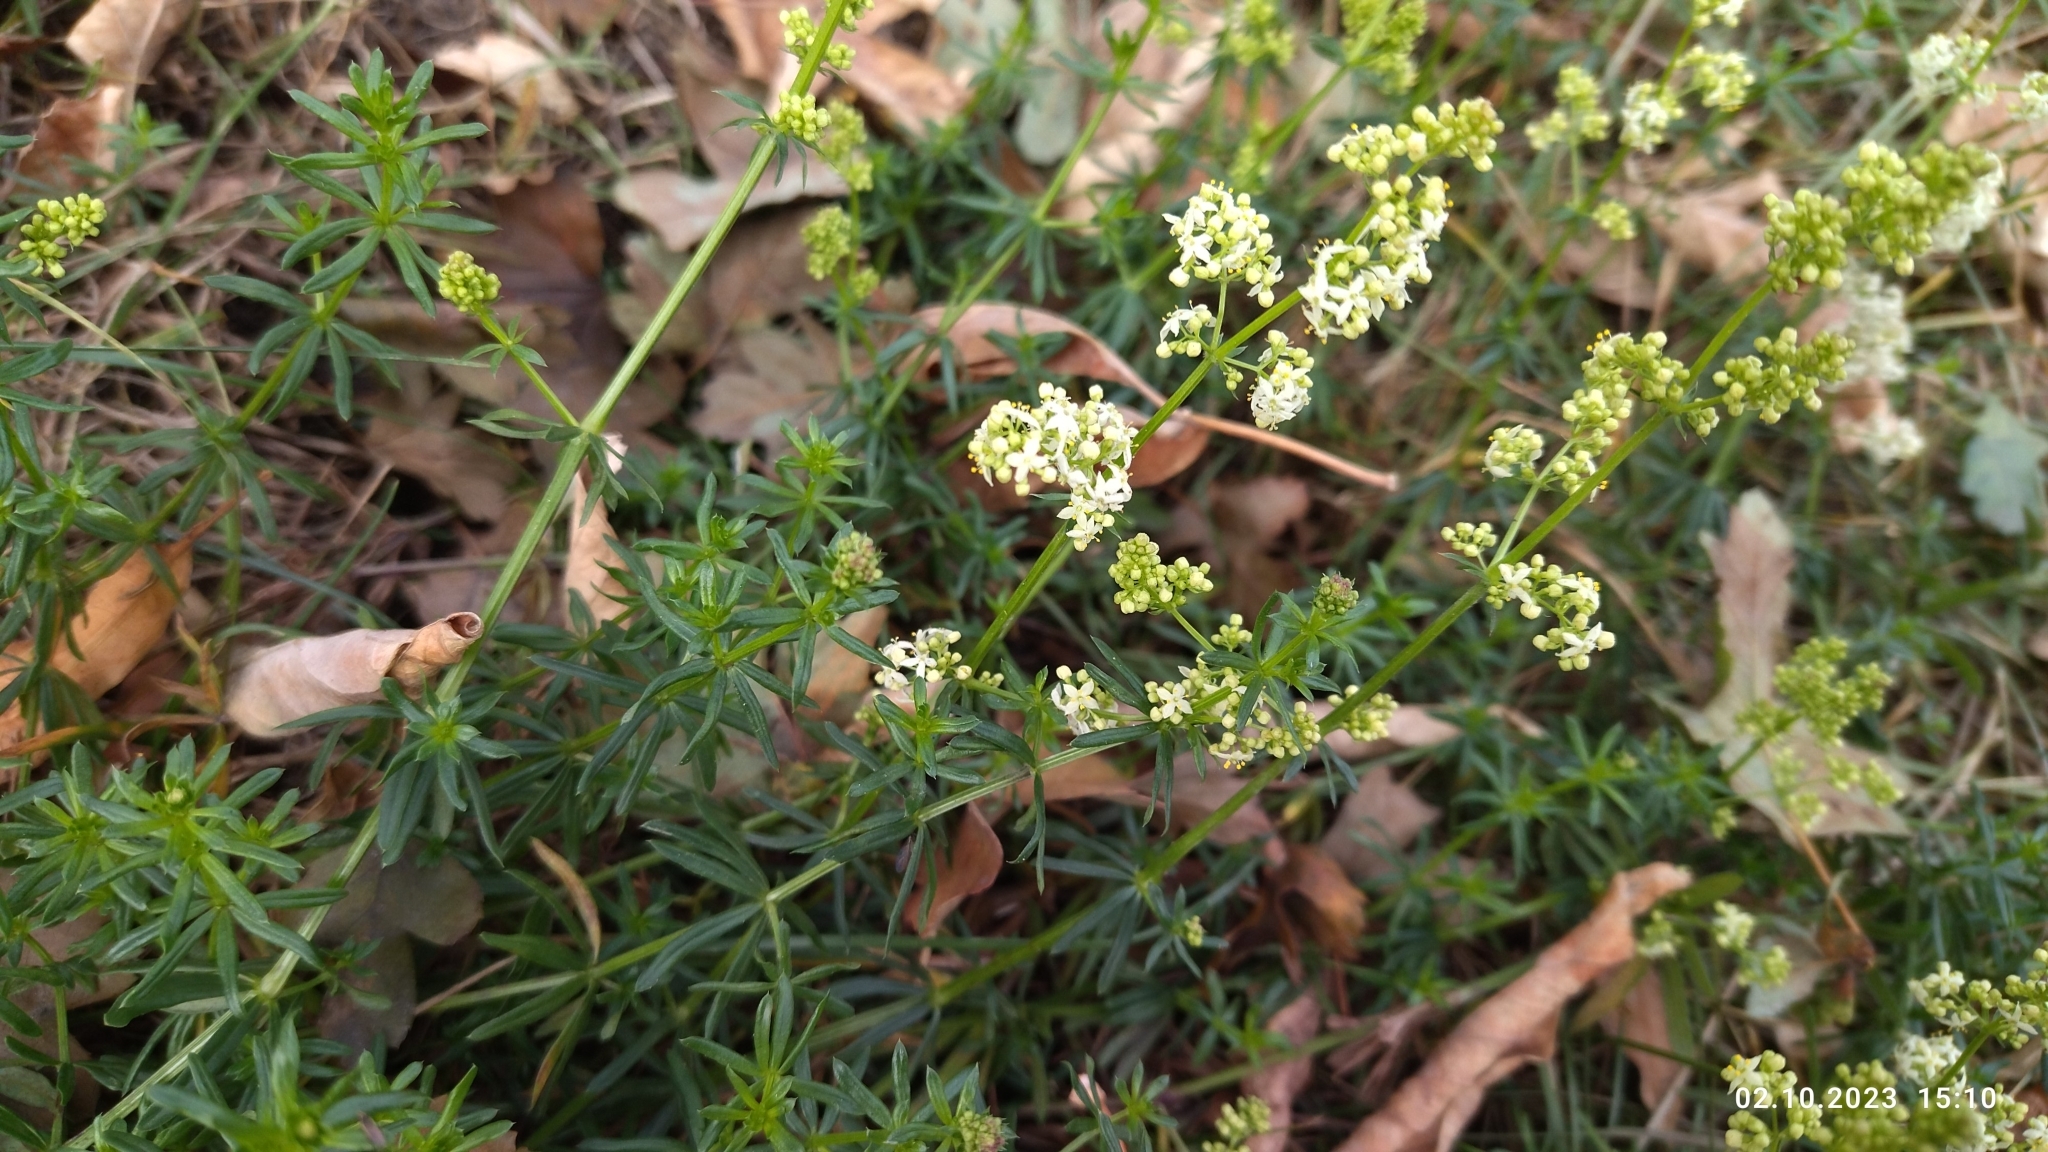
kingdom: Plantae
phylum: Tracheophyta
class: Magnoliopsida
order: Gentianales
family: Rubiaceae
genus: Galium
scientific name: Galium mollugo
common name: Hedge bedstraw
